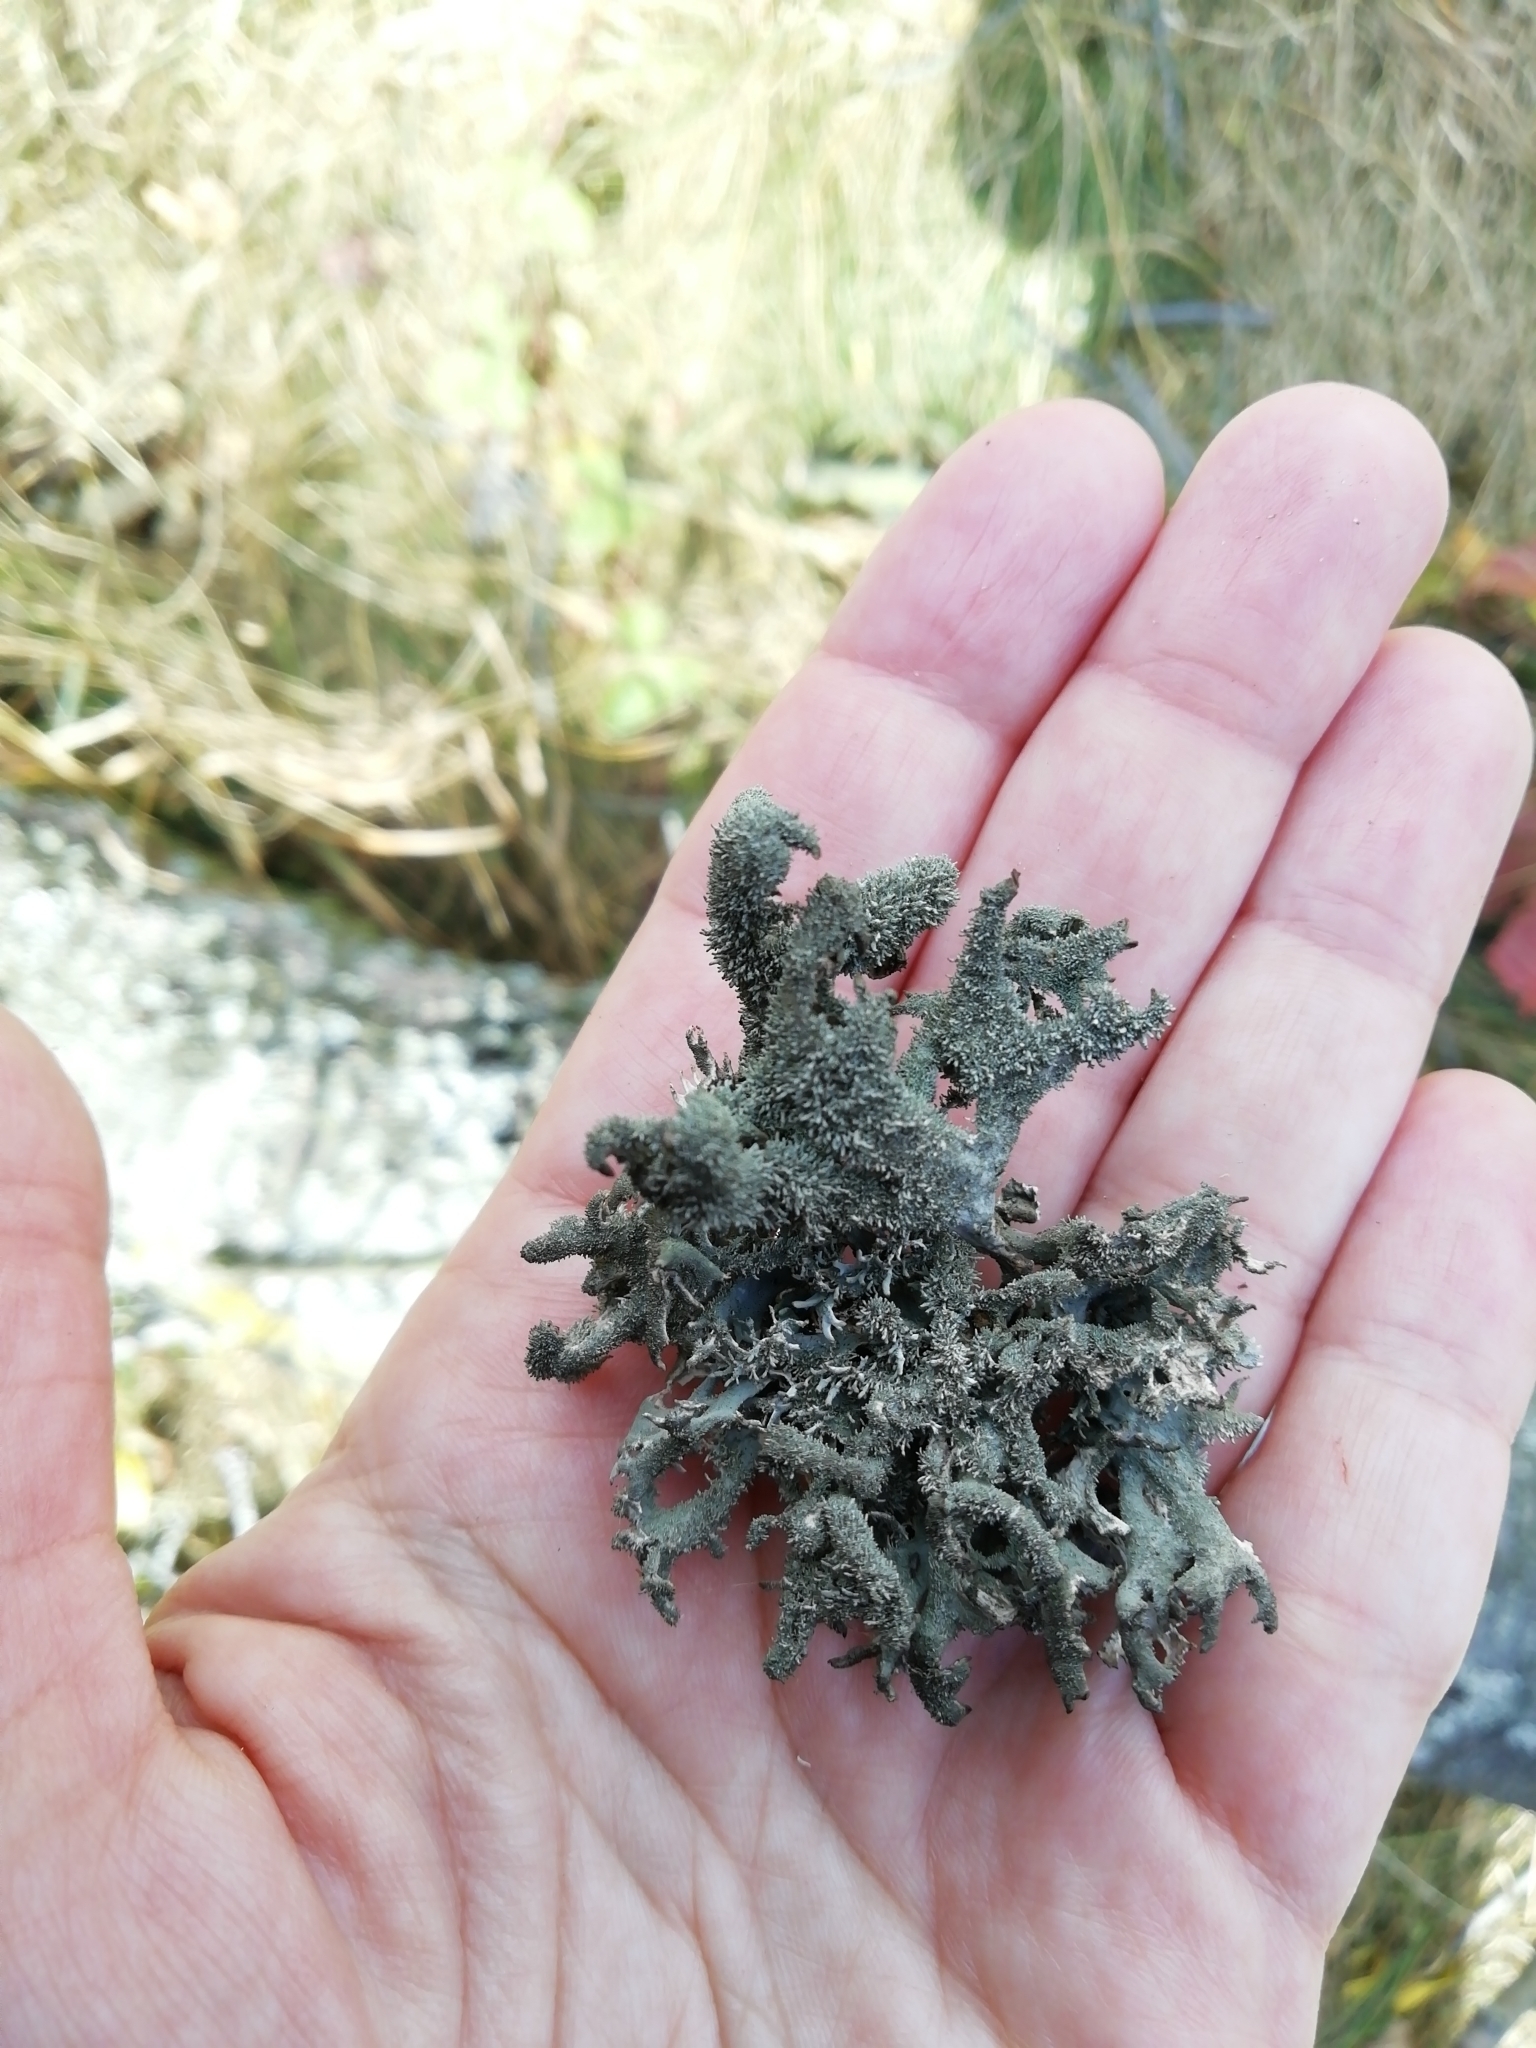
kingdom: Fungi
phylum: Ascomycota
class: Lecanoromycetes
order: Lecanorales
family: Parmeliaceae
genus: Pseudevernia
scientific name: Pseudevernia furfuracea
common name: Tree moss
